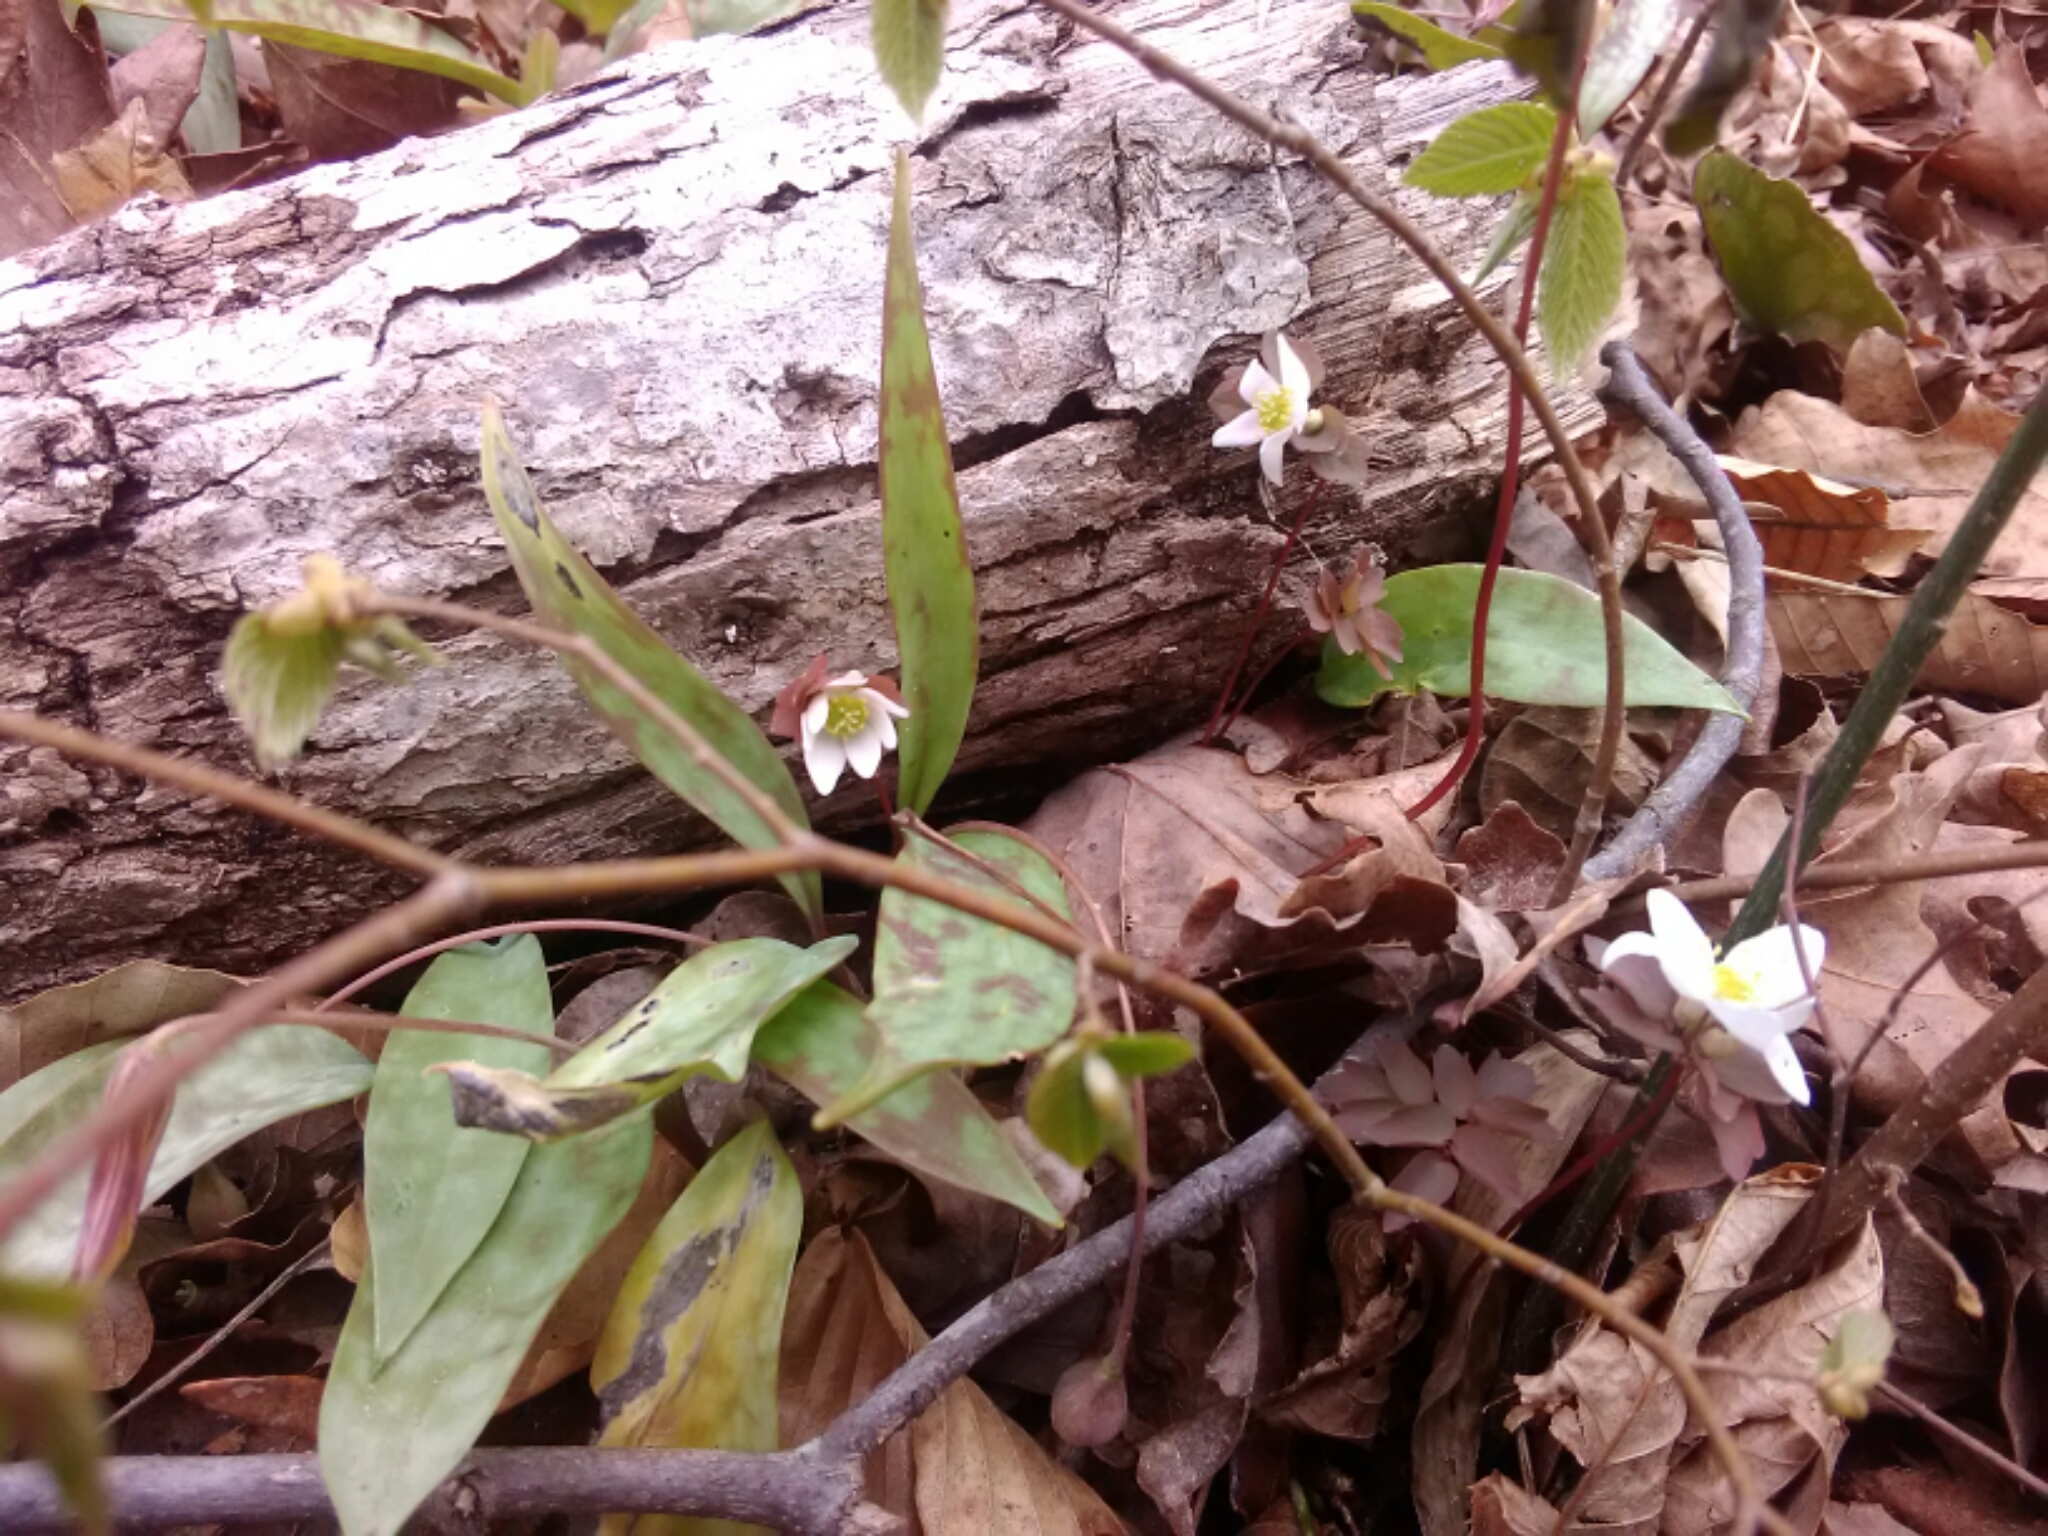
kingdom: Plantae
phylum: Tracheophyta
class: Magnoliopsida
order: Ranunculales
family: Ranunculaceae
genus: Thalictrum
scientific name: Thalictrum thalictroides
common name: Rue-anemone
